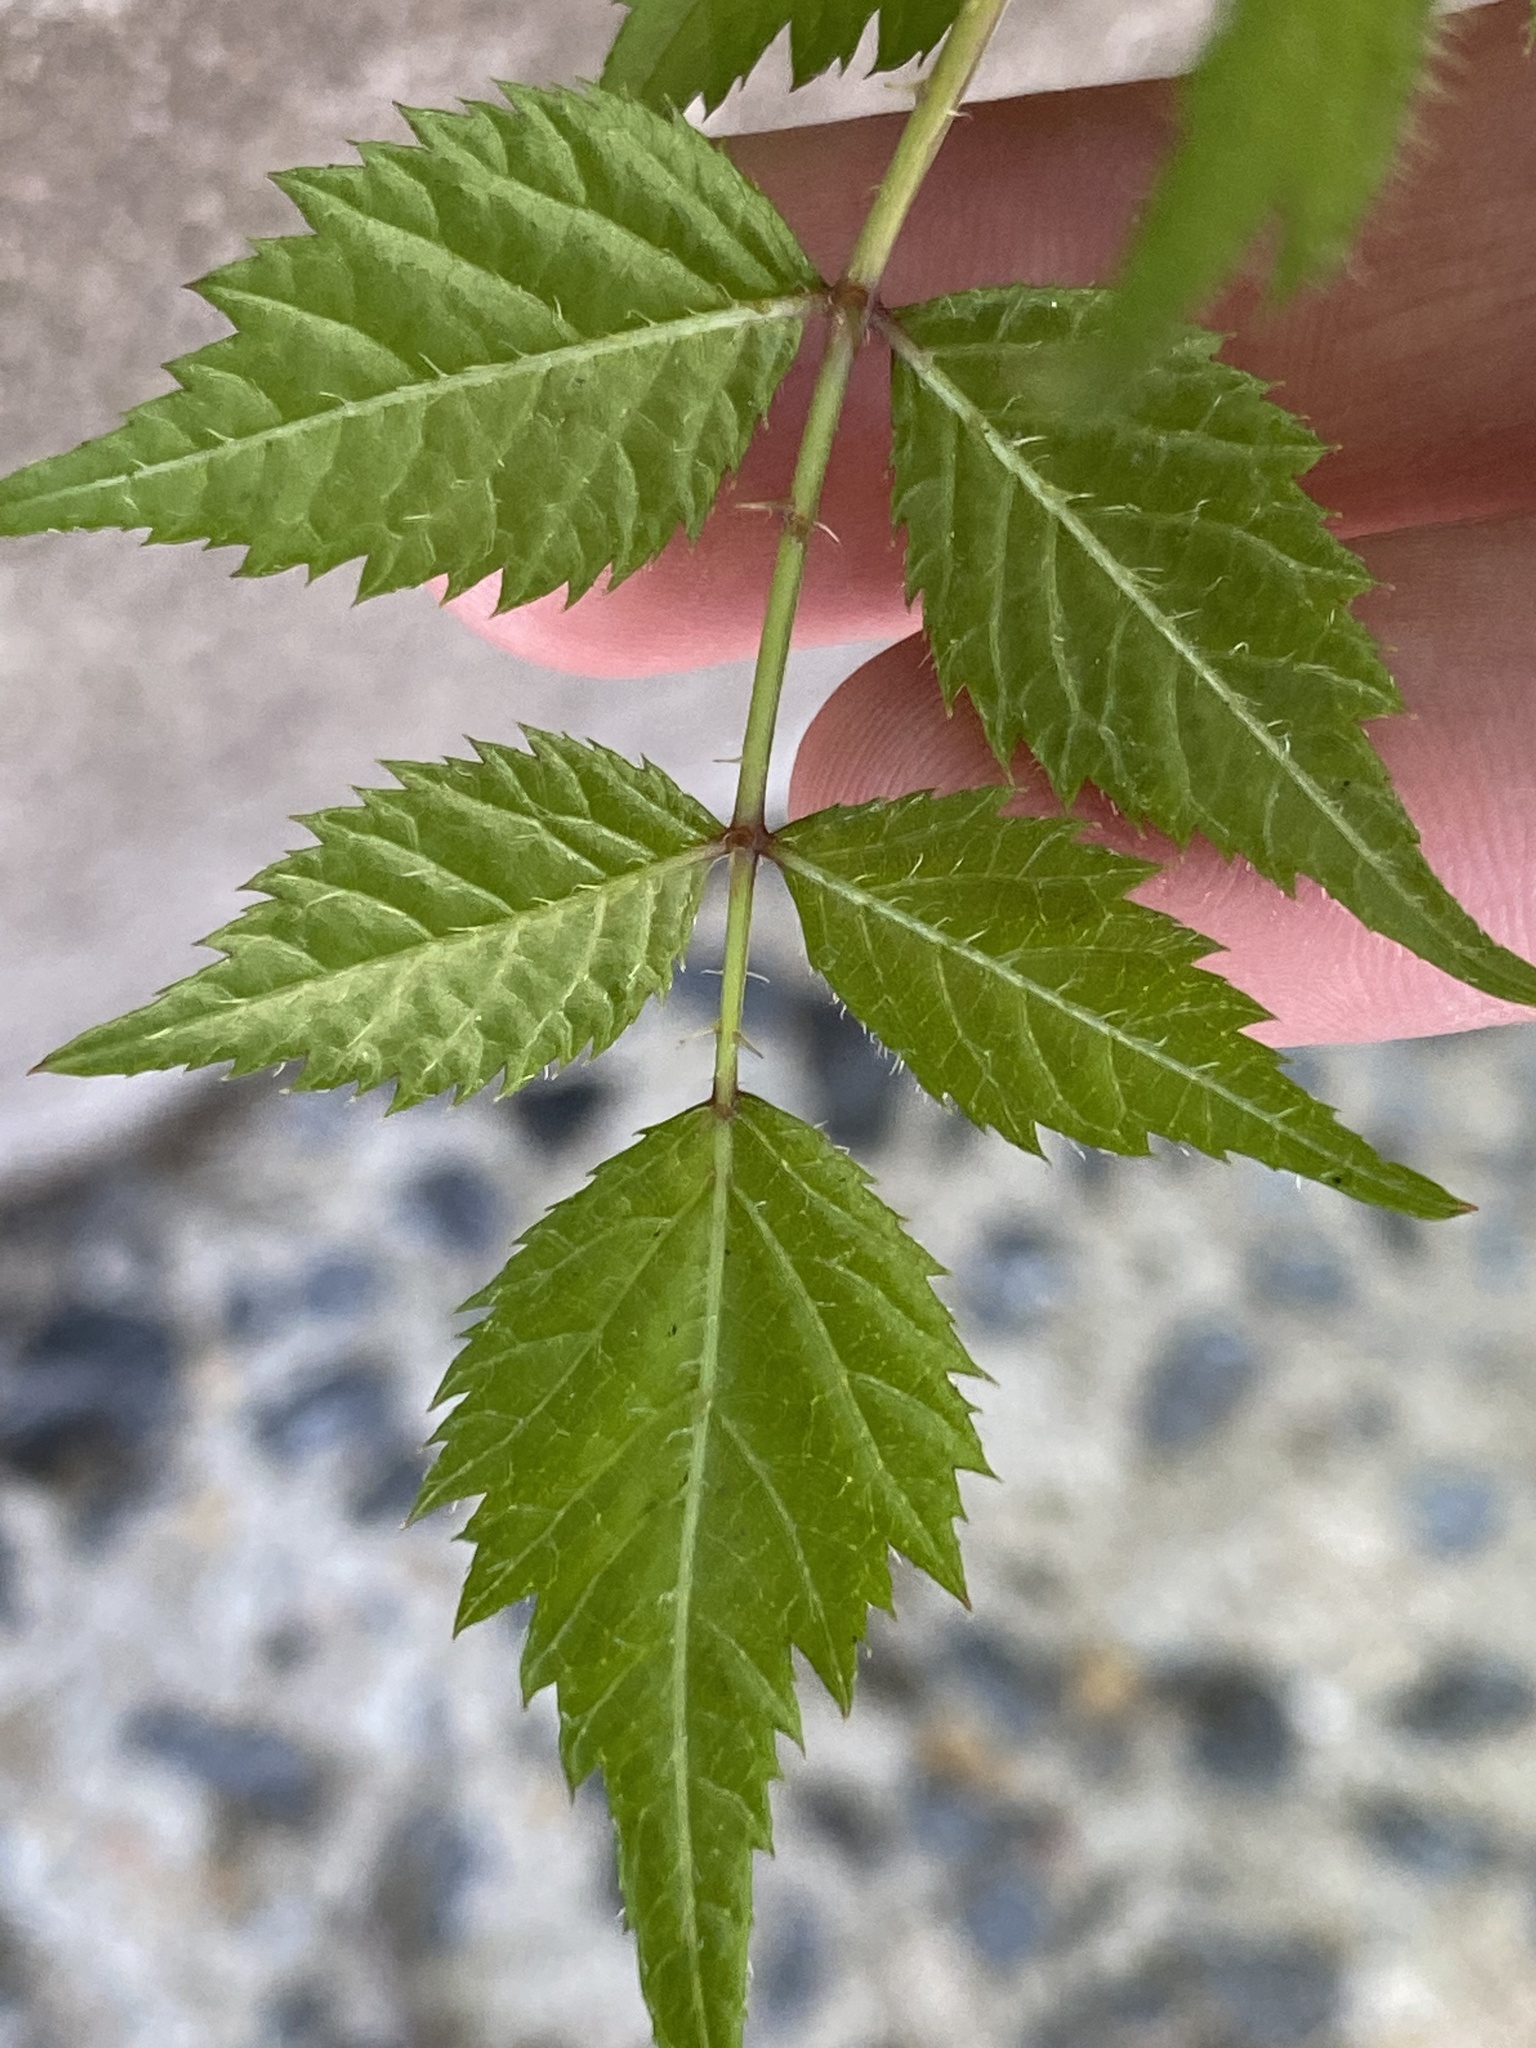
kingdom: Plantae
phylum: Tracheophyta
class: Magnoliopsida
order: Apiales
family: Araliaceae
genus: Aralia
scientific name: Aralia elata
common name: Japanese angelica-tree
